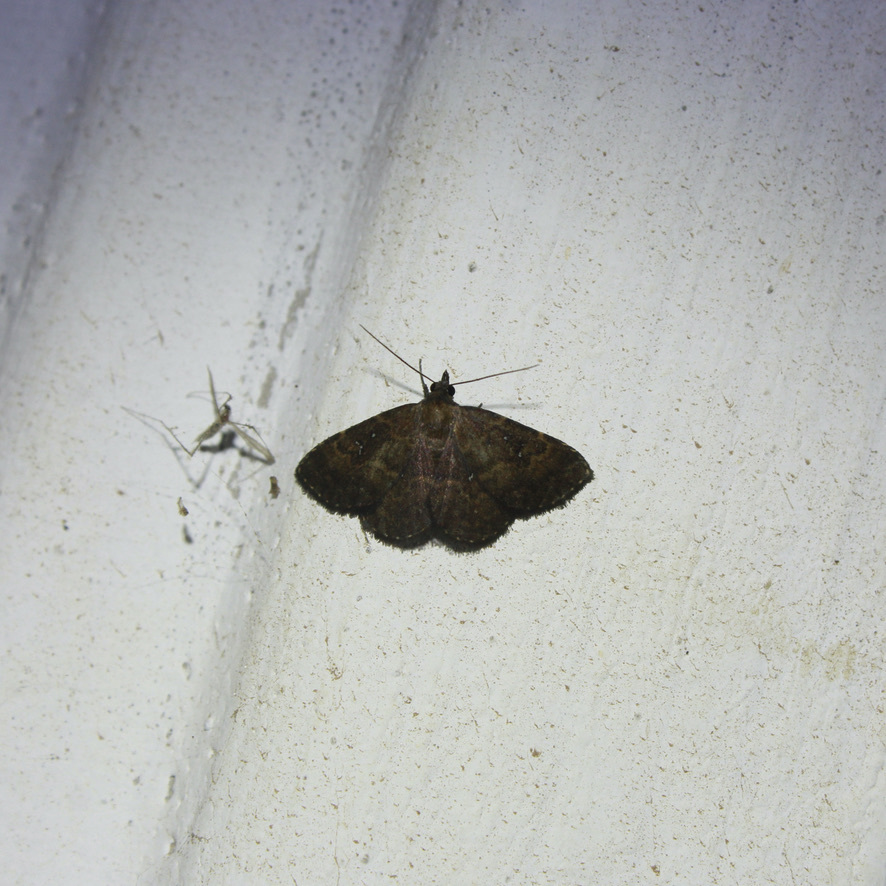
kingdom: Animalia
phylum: Arthropoda
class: Insecta
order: Lepidoptera
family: Erebidae
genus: Ostha
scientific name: Ostha coryphata
